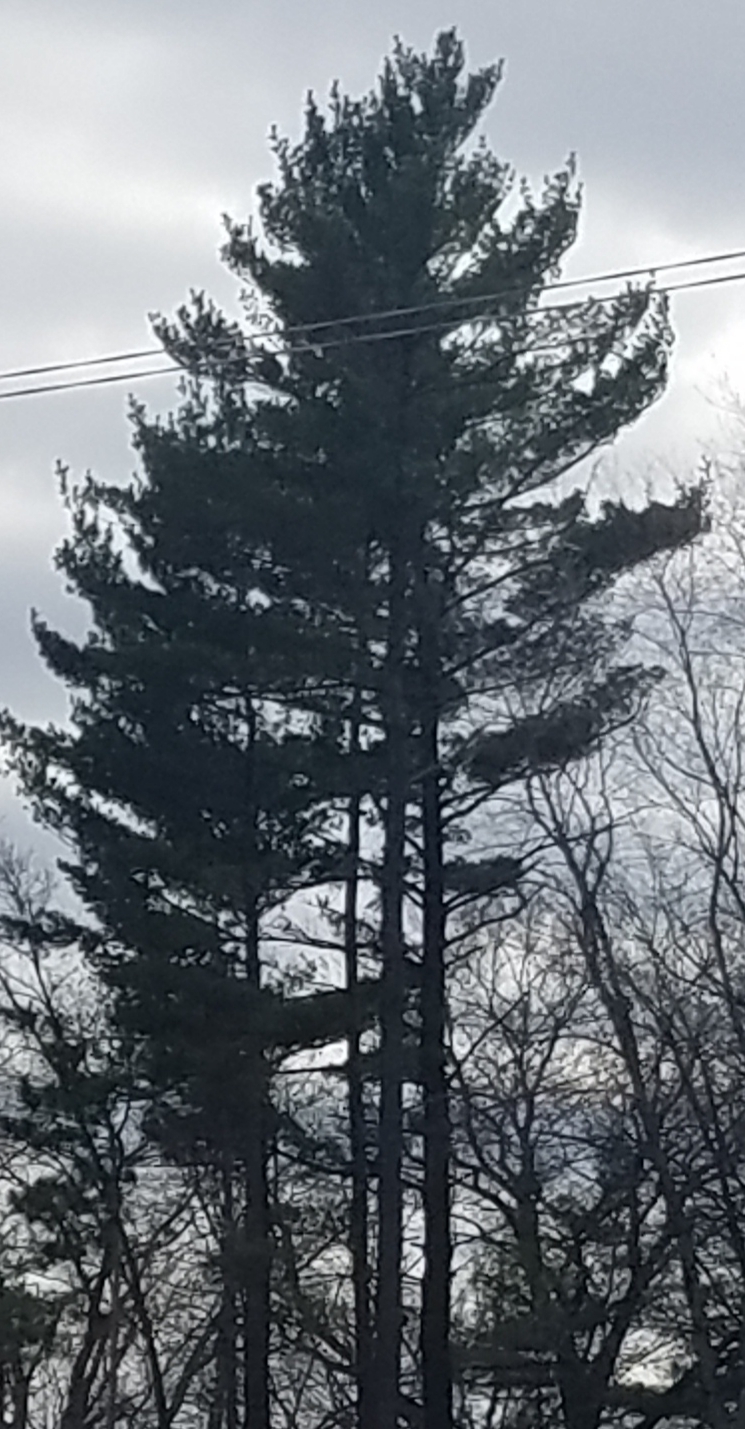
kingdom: Plantae
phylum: Tracheophyta
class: Pinopsida
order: Pinales
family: Pinaceae
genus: Pinus
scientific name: Pinus strobus
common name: Weymouth pine
